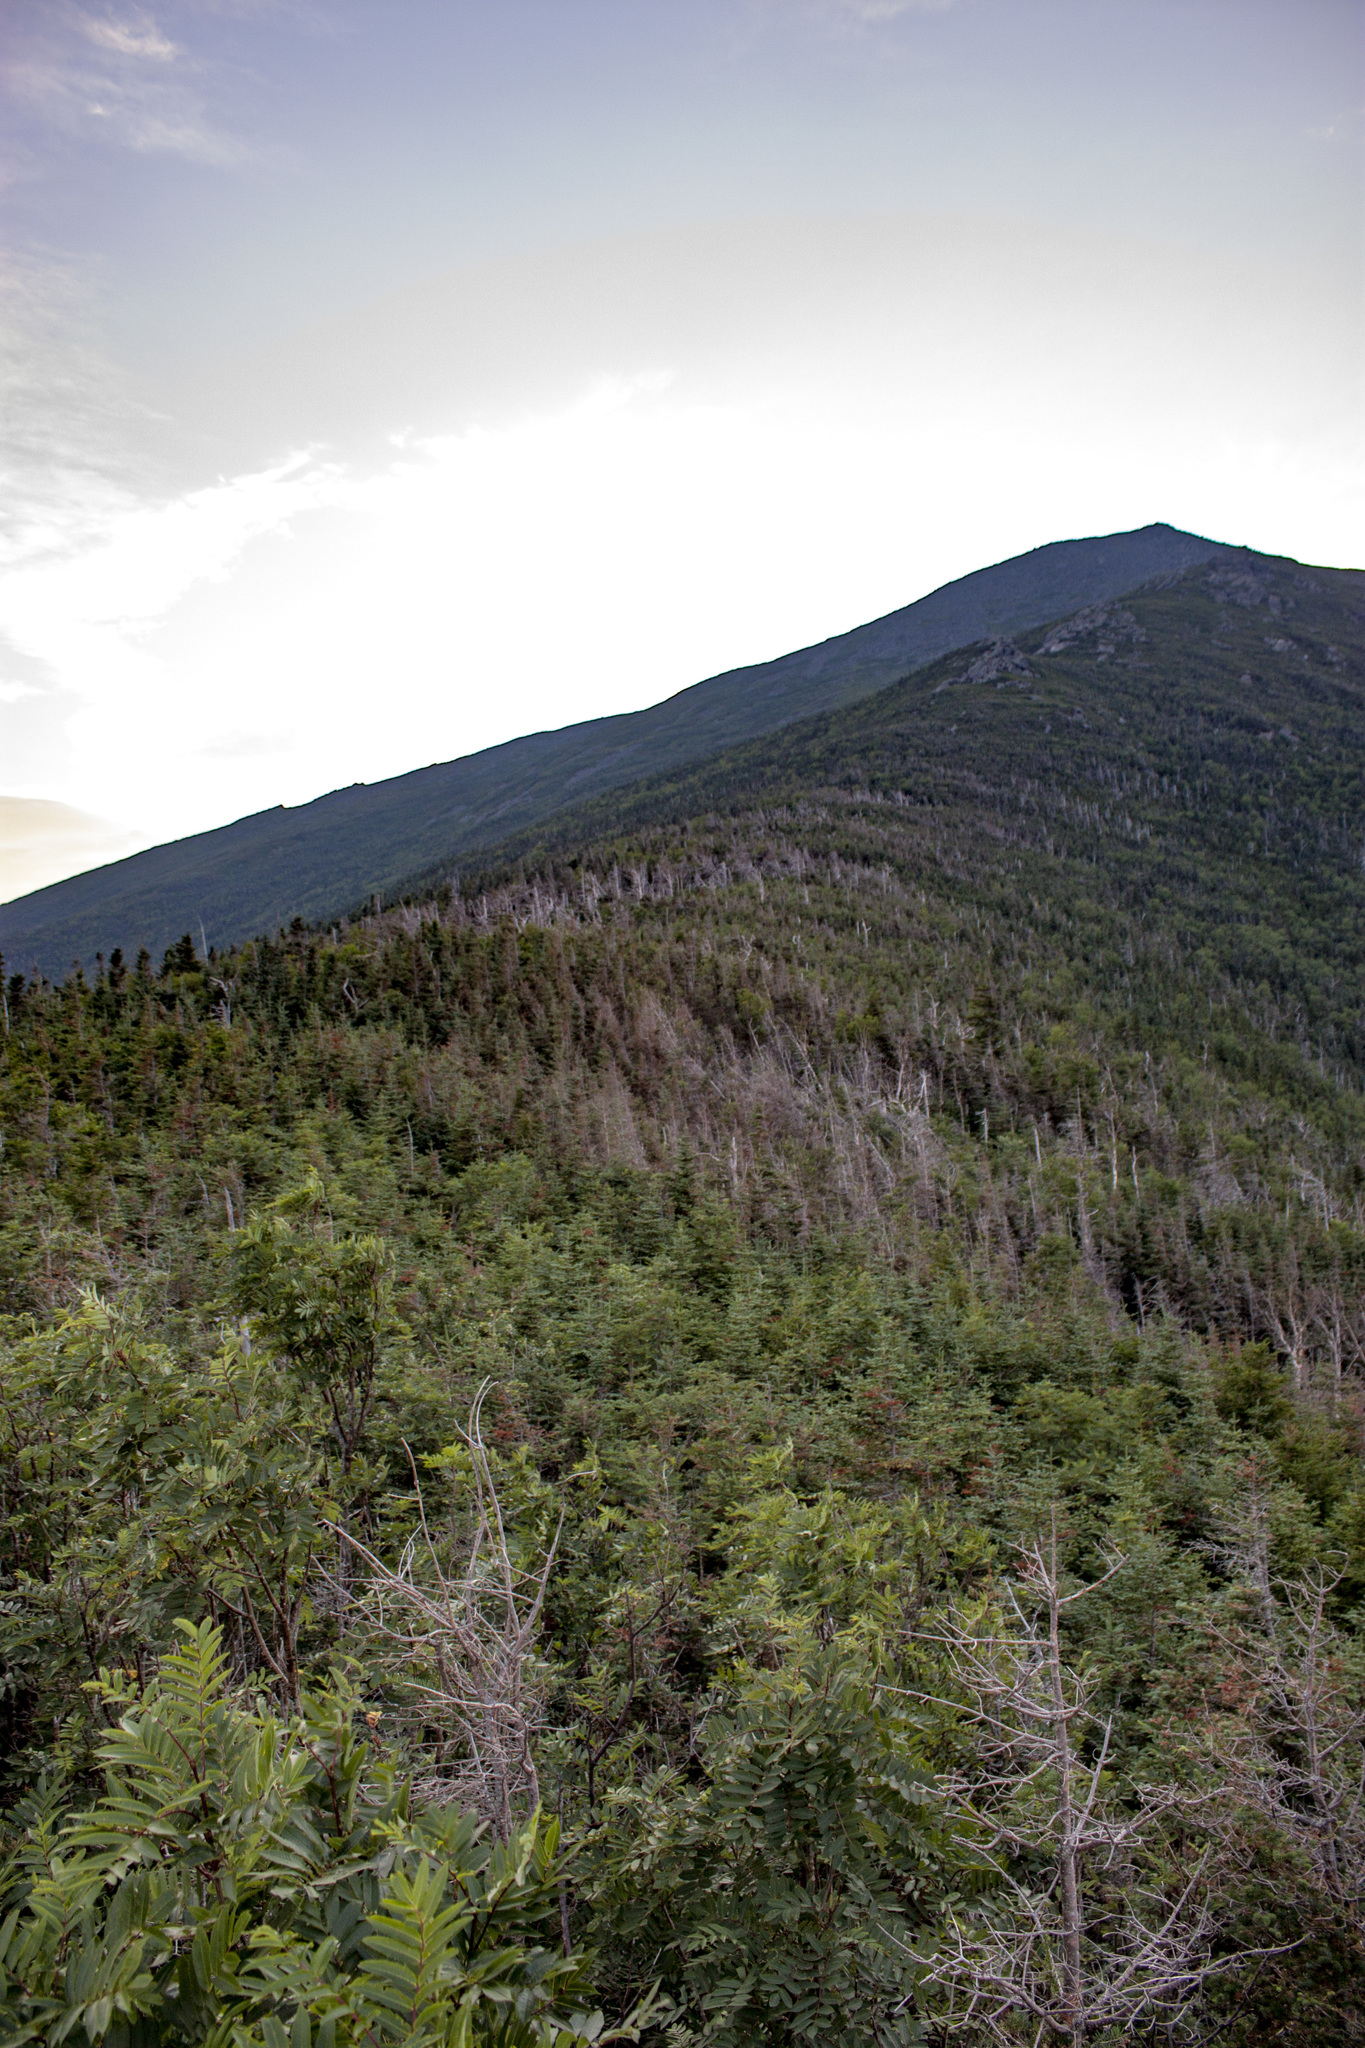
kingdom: Plantae
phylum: Tracheophyta
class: Pinopsida
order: Pinales
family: Pinaceae
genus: Abies
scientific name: Abies balsamea
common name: Balsam fir
